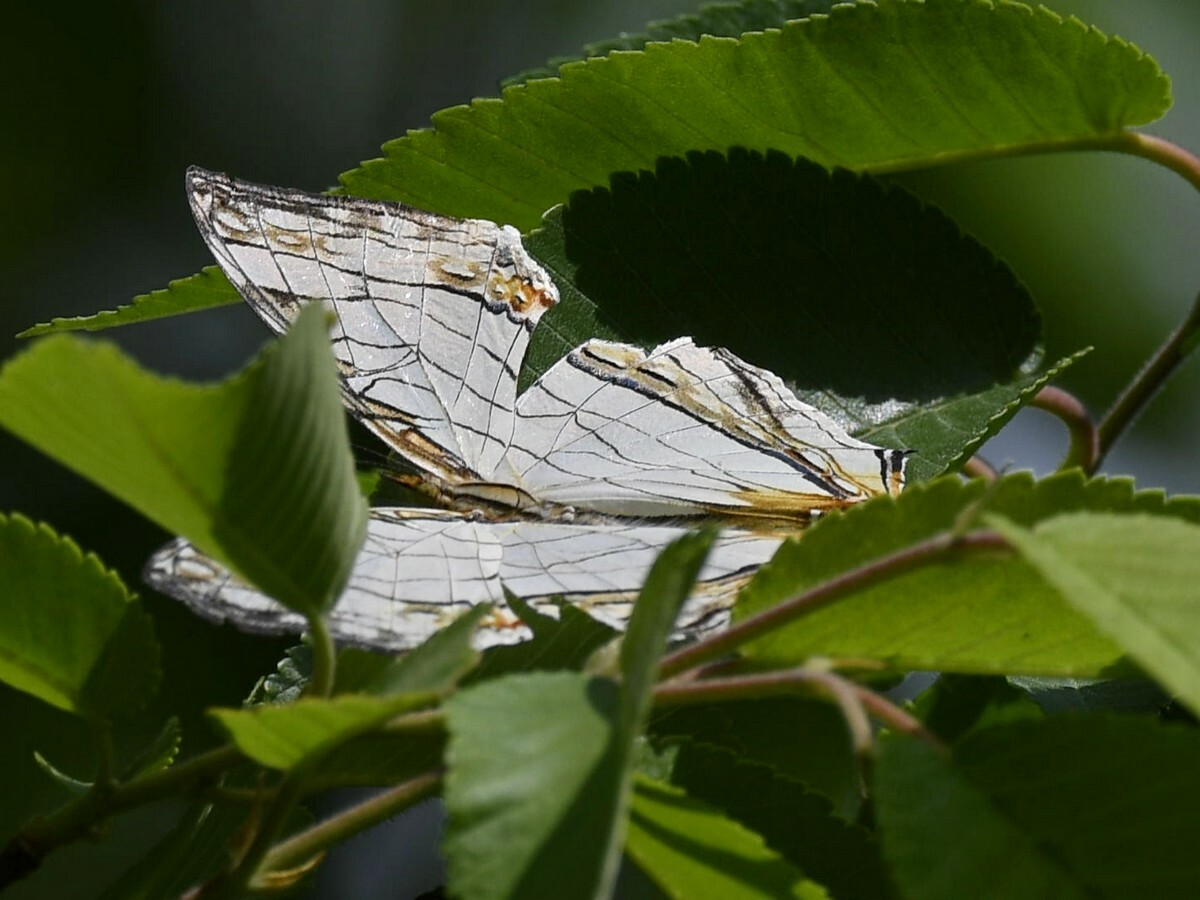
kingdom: Animalia
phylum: Arthropoda
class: Insecta
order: Lepidoptera
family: Nymphalidae
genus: Cyrestis
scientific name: Cyrestis thyodamas
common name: Common mapwing
